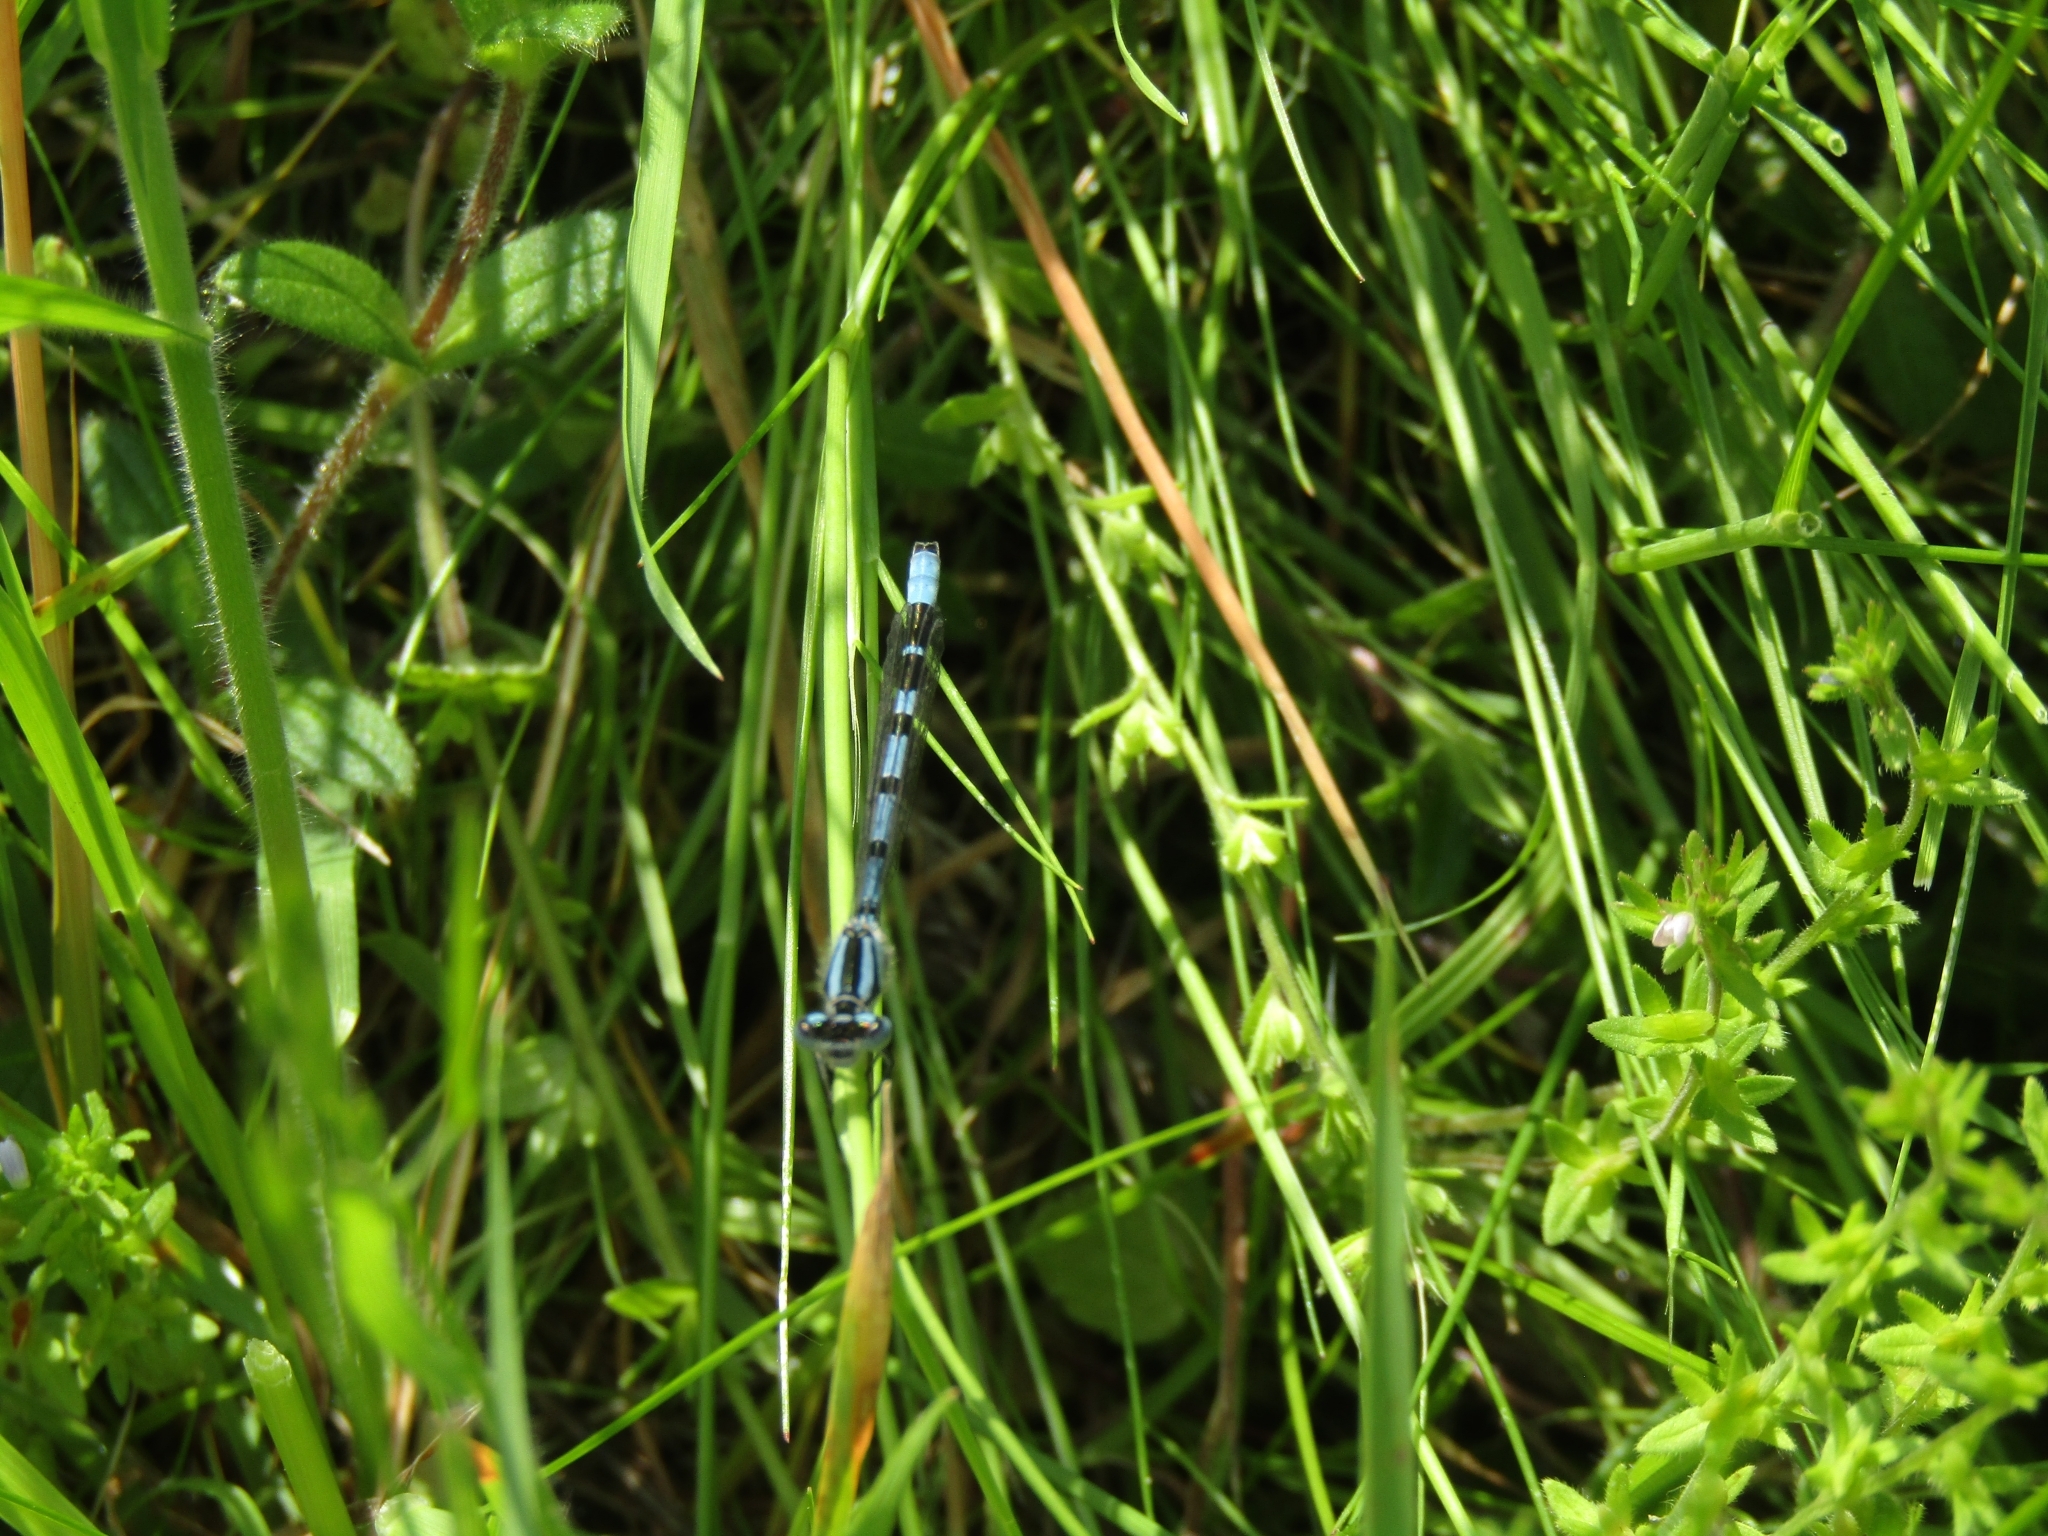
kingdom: Animalia
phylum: Arthropoda
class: Insecta
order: Odonata
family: Coenagrionidae
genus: Enallagma
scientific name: Enallagma cyathigerum
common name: Common blue damselfly
